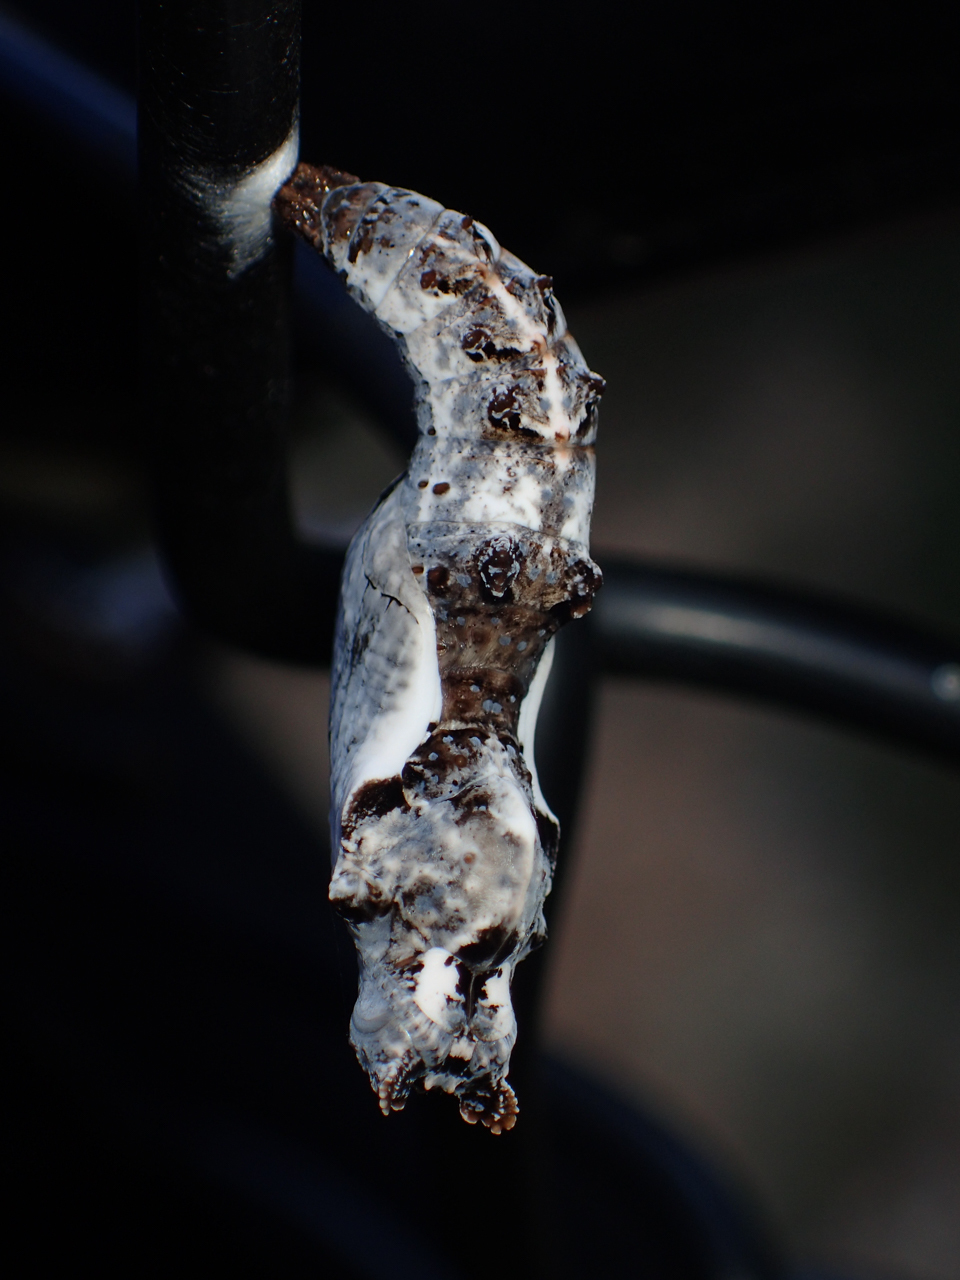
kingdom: Animalia
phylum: Arthropoda
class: Insecta
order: Lepidoptera
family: Nymphalidae
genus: Dione
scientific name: Dione vanillae
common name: Gulf fritillary
